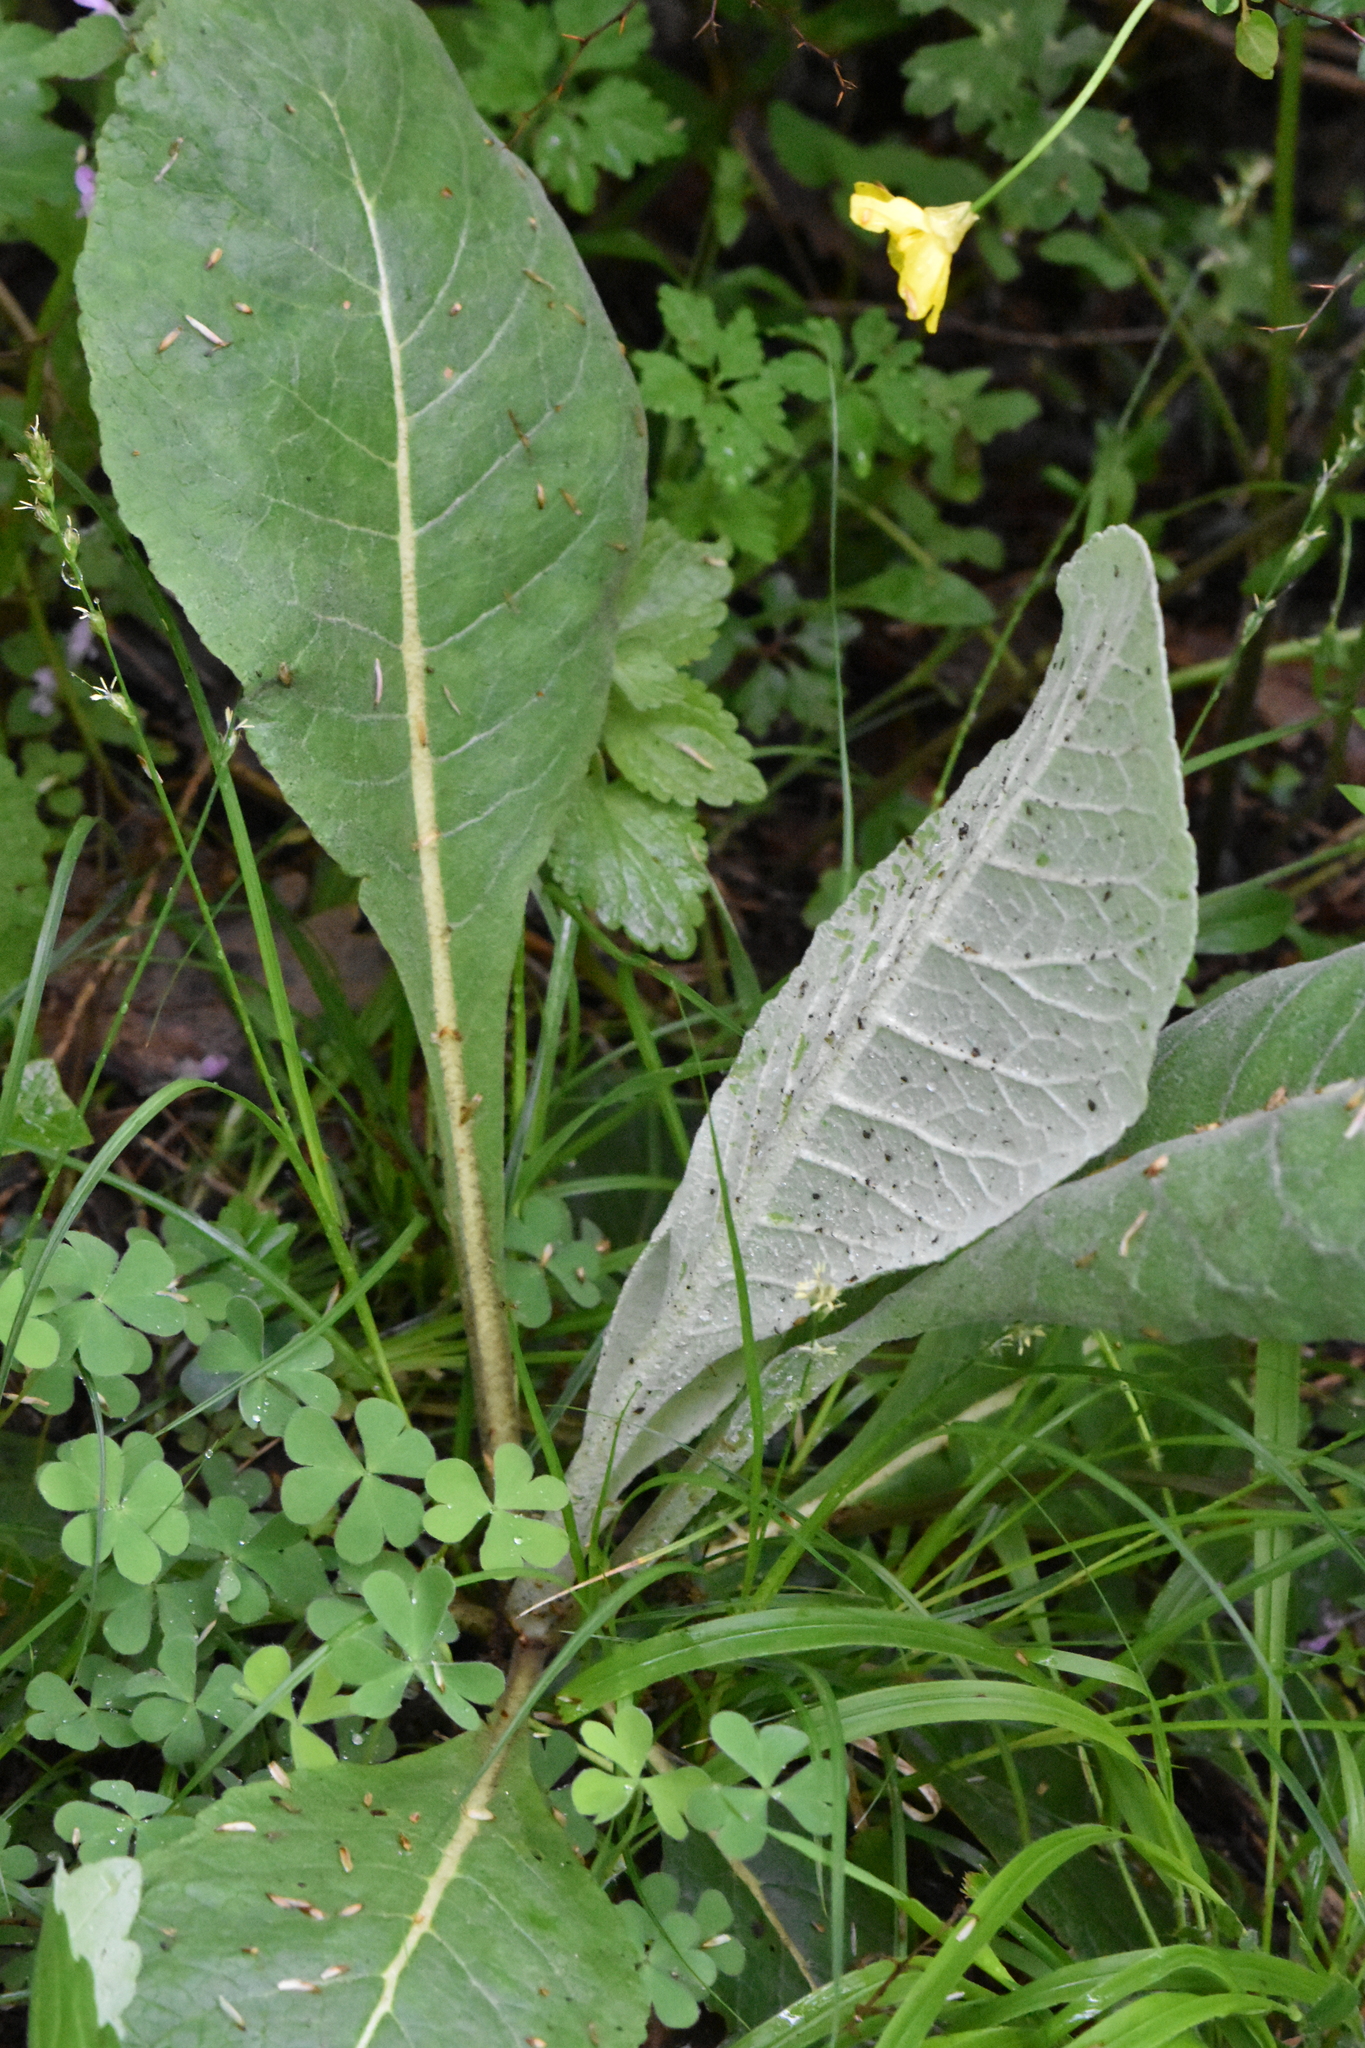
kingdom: Plantae
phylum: Tracheophyta
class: Magnoliopsida
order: Asterales
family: Asteraceae
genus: Inula
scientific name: Inula helenium
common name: Elecampane
